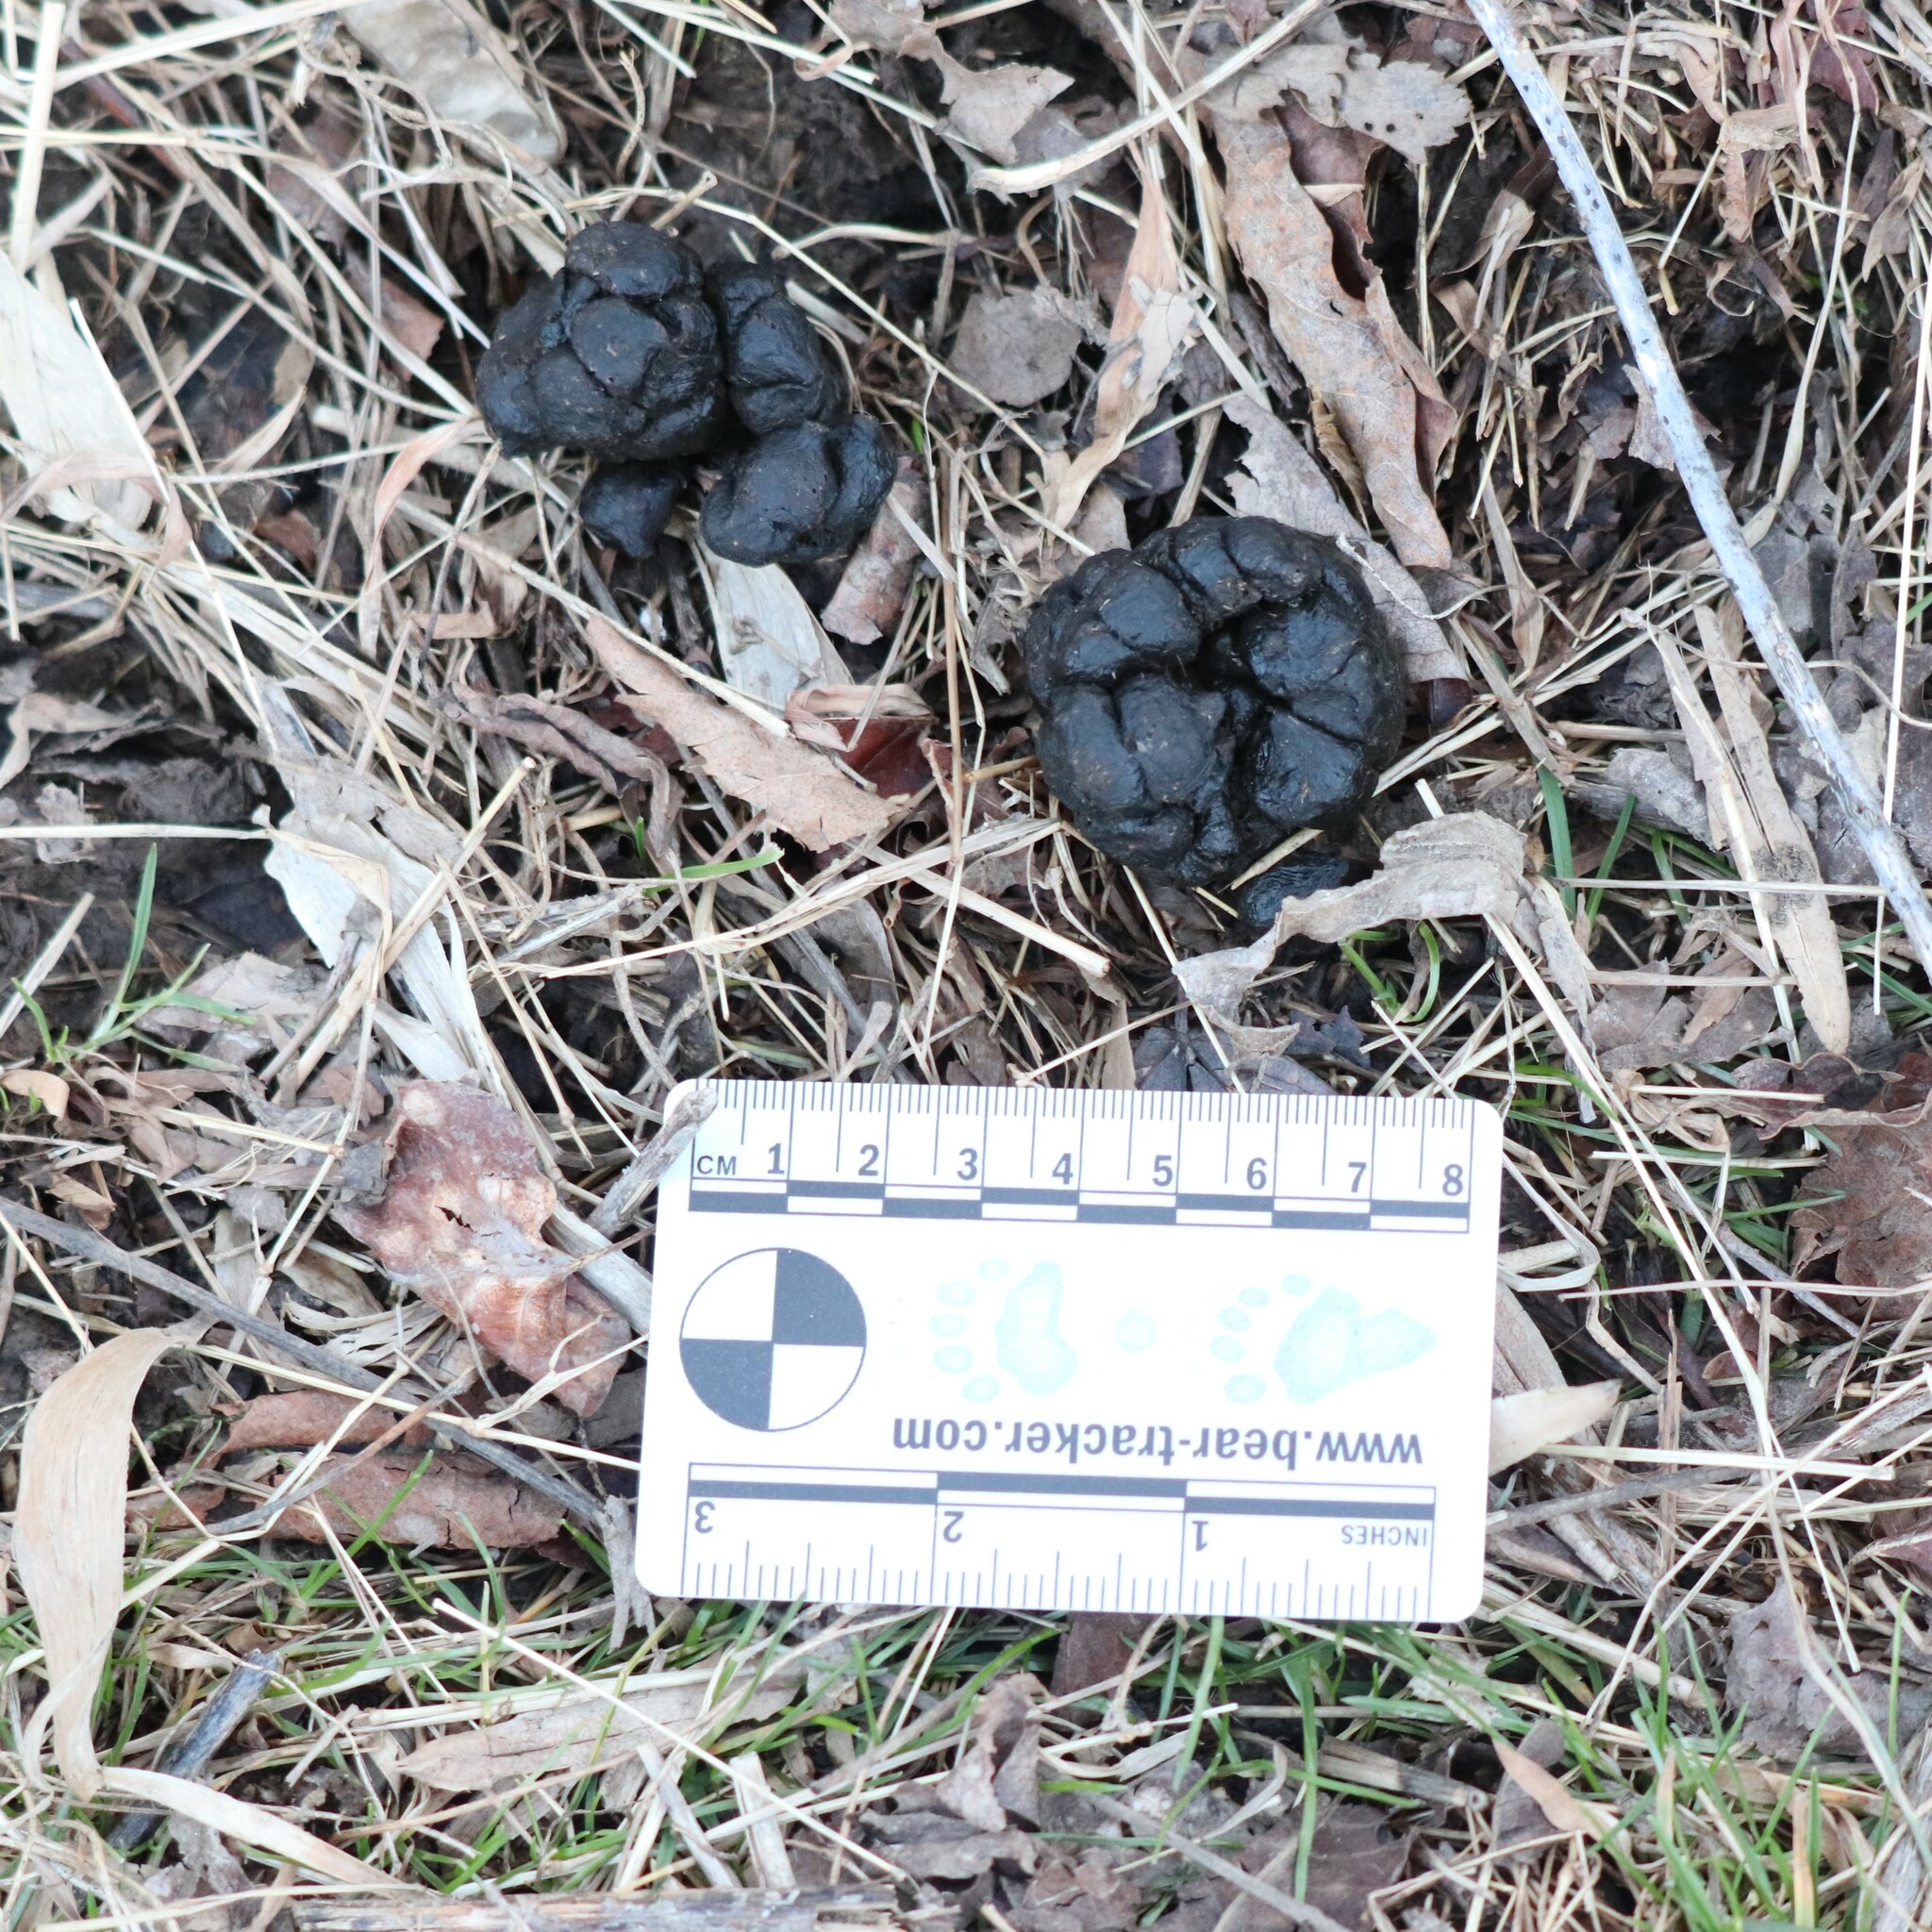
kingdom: Animalia
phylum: Chordata
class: Mammalia
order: Artiodactyla
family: Cervidae
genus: Odocoileus
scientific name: Odocoileus virginianus
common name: White-tailed deer
